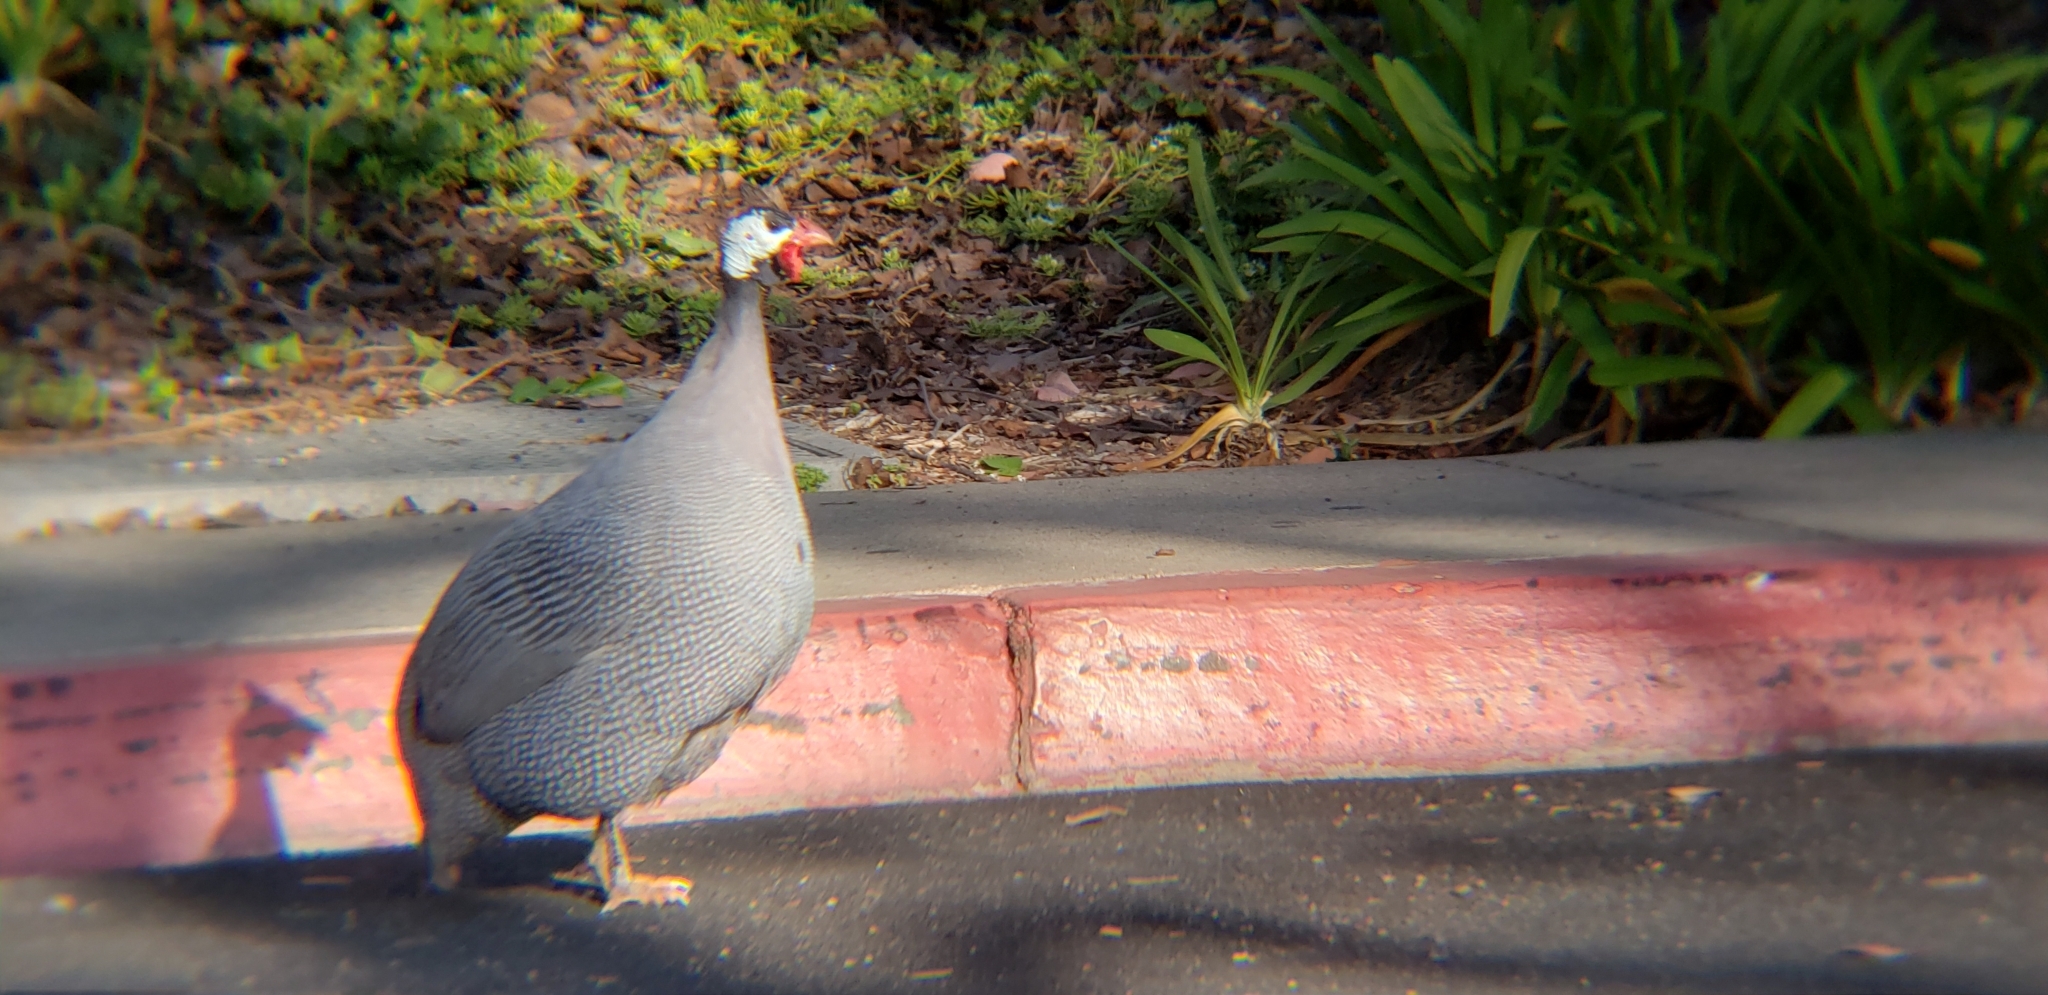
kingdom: Animalia
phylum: Chordata
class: Aves
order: Galliformes
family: Numididae
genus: Numida
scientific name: Numida meleagris
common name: Helmeted guineafowl
